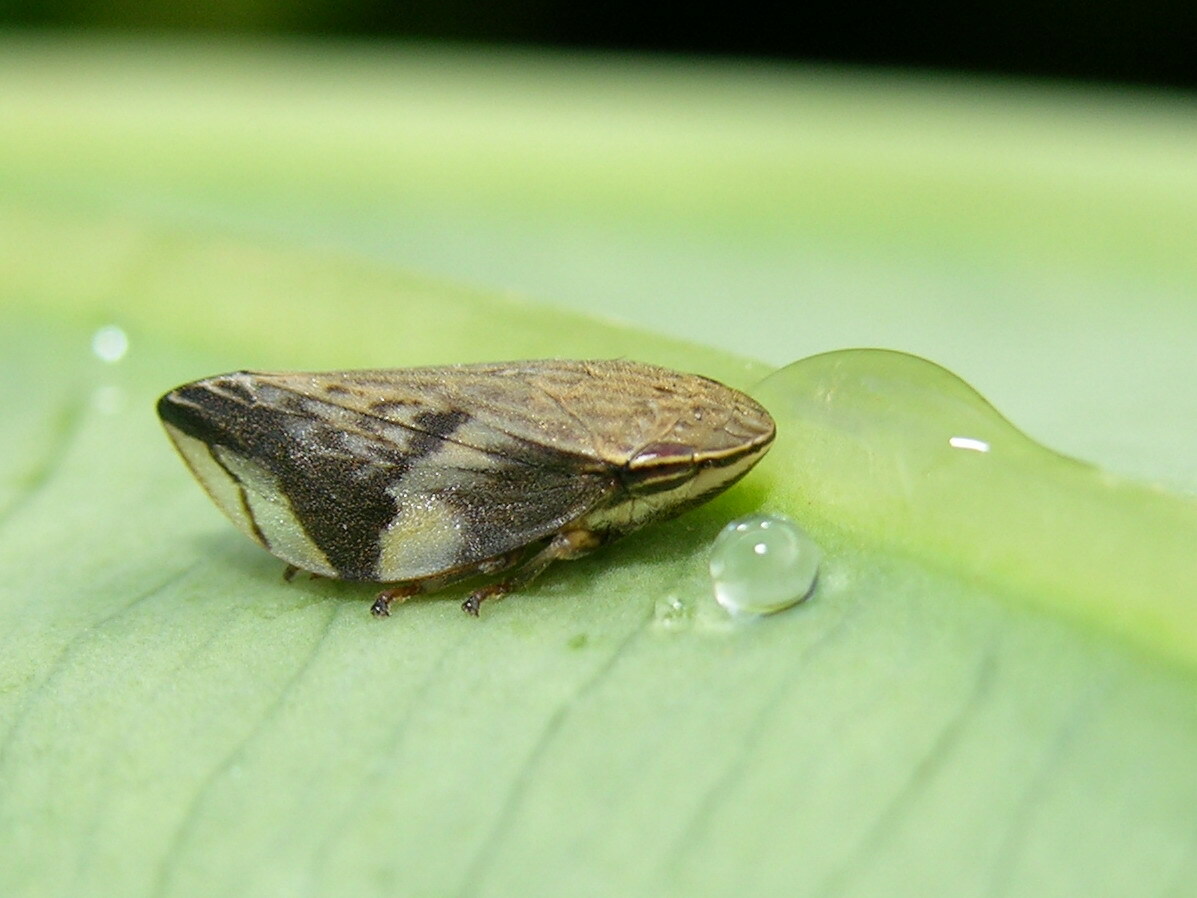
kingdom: Animalia
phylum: Arthropoda
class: Insecta
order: Hemiptera
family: Aphrophoridae
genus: Clovia
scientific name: Clovia conifera
